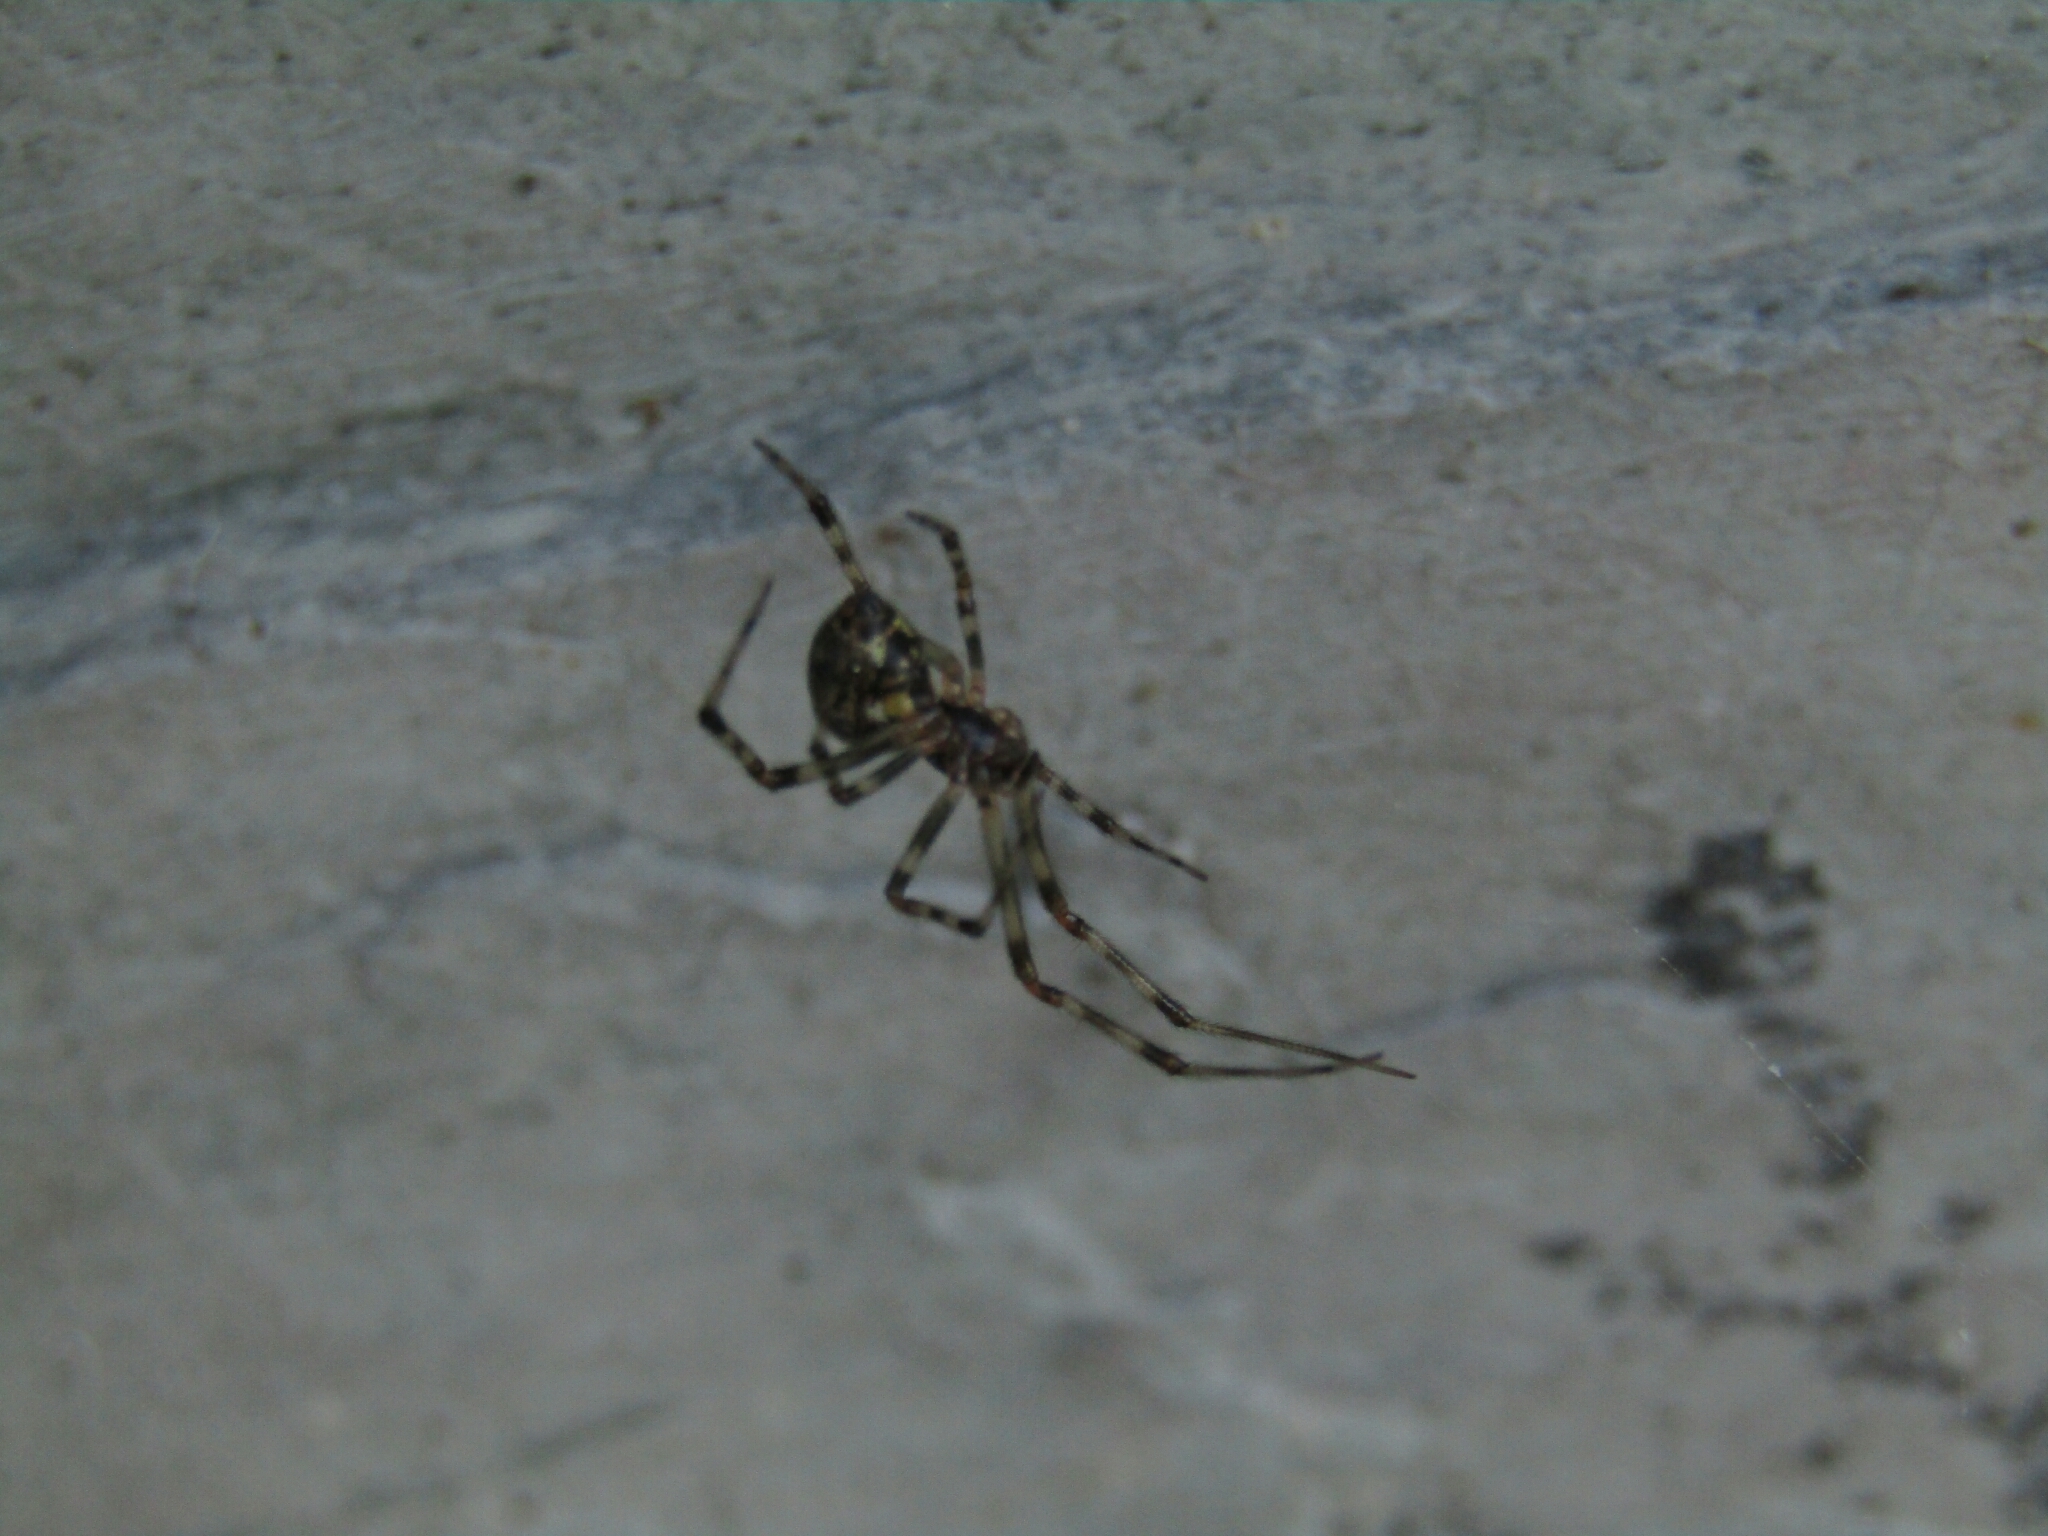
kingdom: Animalia
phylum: Arthropoda
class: Arachnida
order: Araneae
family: Theridiidae
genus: Parasteatoda
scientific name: Parasteatoda tepidariorum
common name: Common house spider
